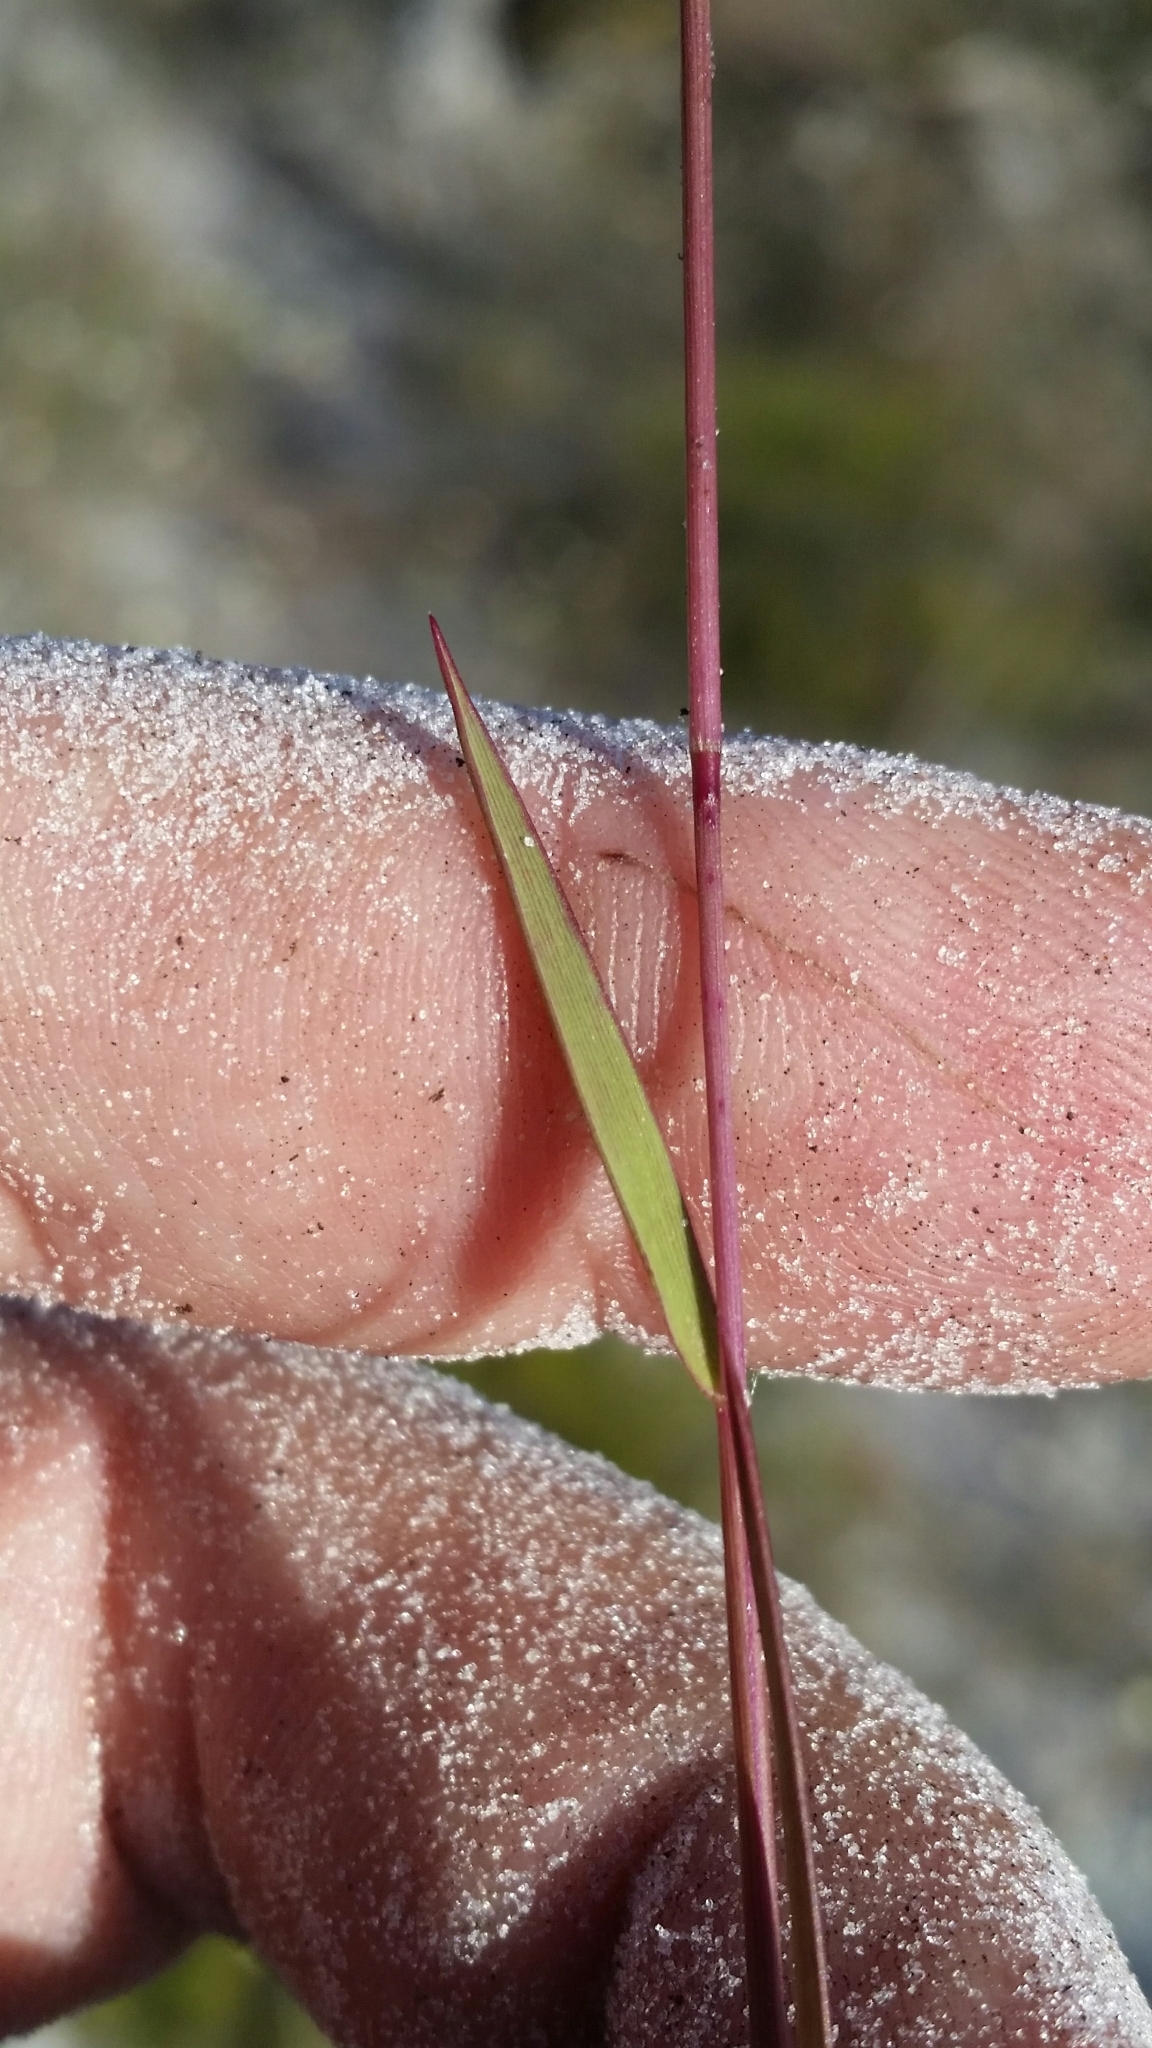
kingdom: Plantae
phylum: Tracheophyta
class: Liliopsida
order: Poales
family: Poaceae
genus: Dichanthelium
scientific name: Dichanthelium chamaelonche
